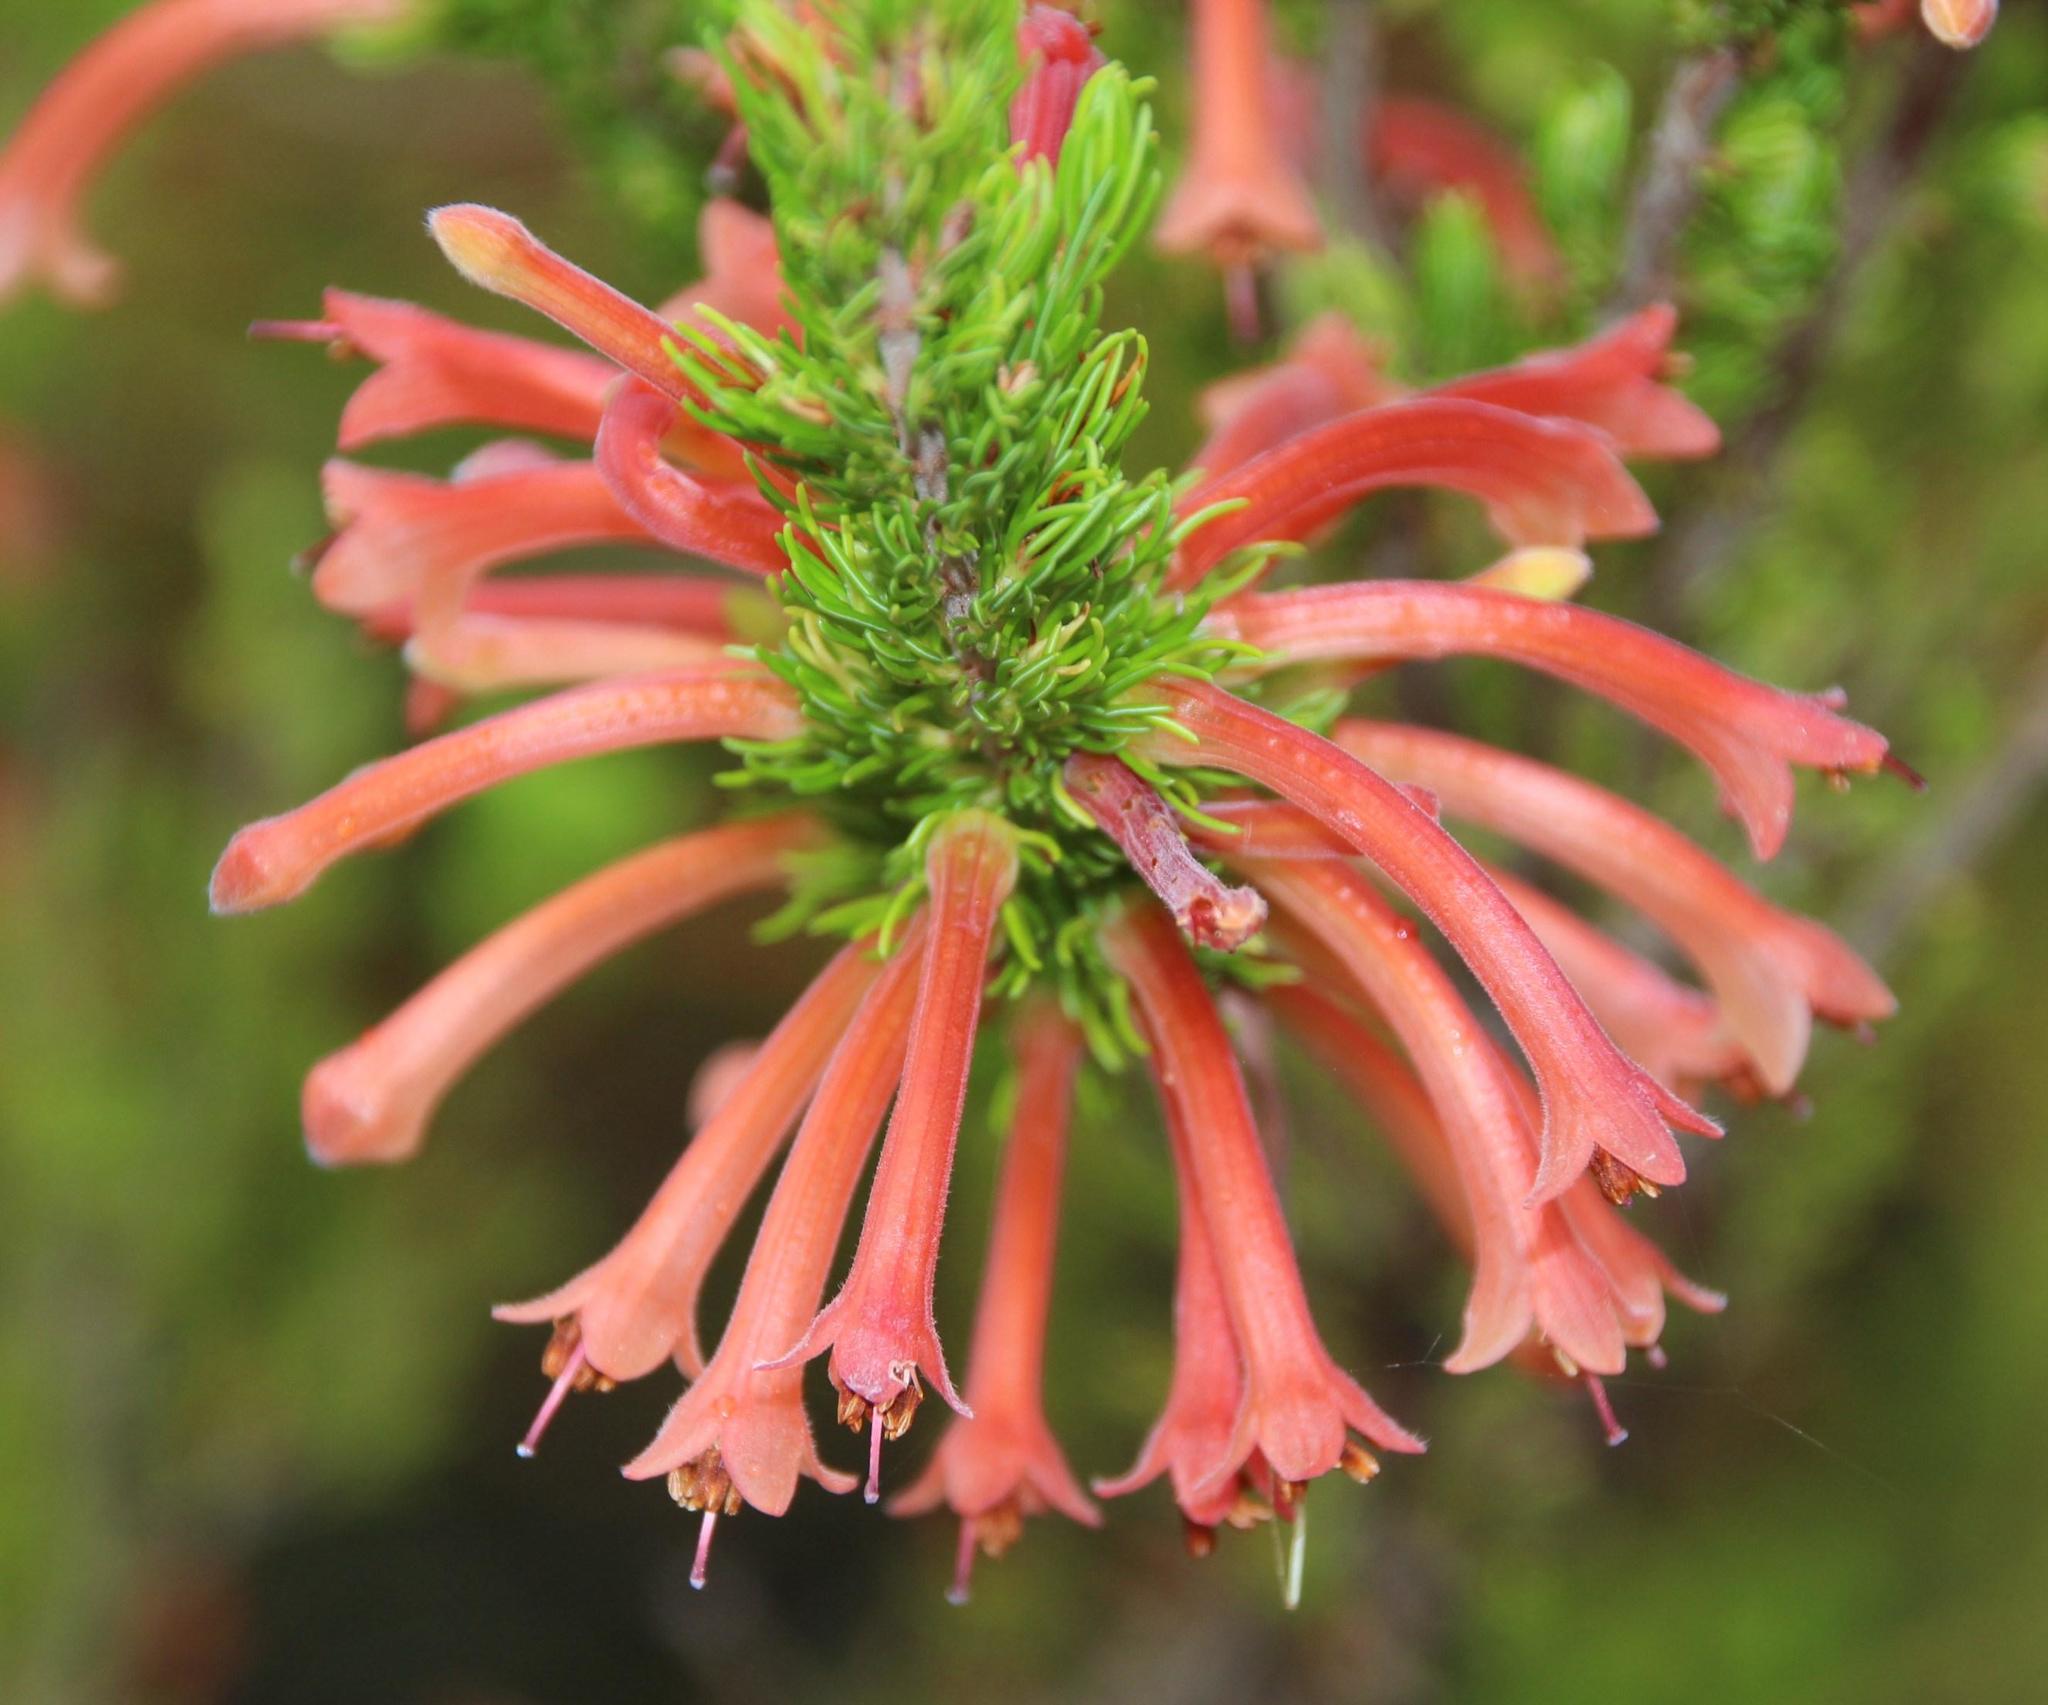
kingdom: Plantae
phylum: Tracheophyta
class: Magnoliopsida
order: Ericales
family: Ericaceae
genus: Erica
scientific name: Erica curviflora
